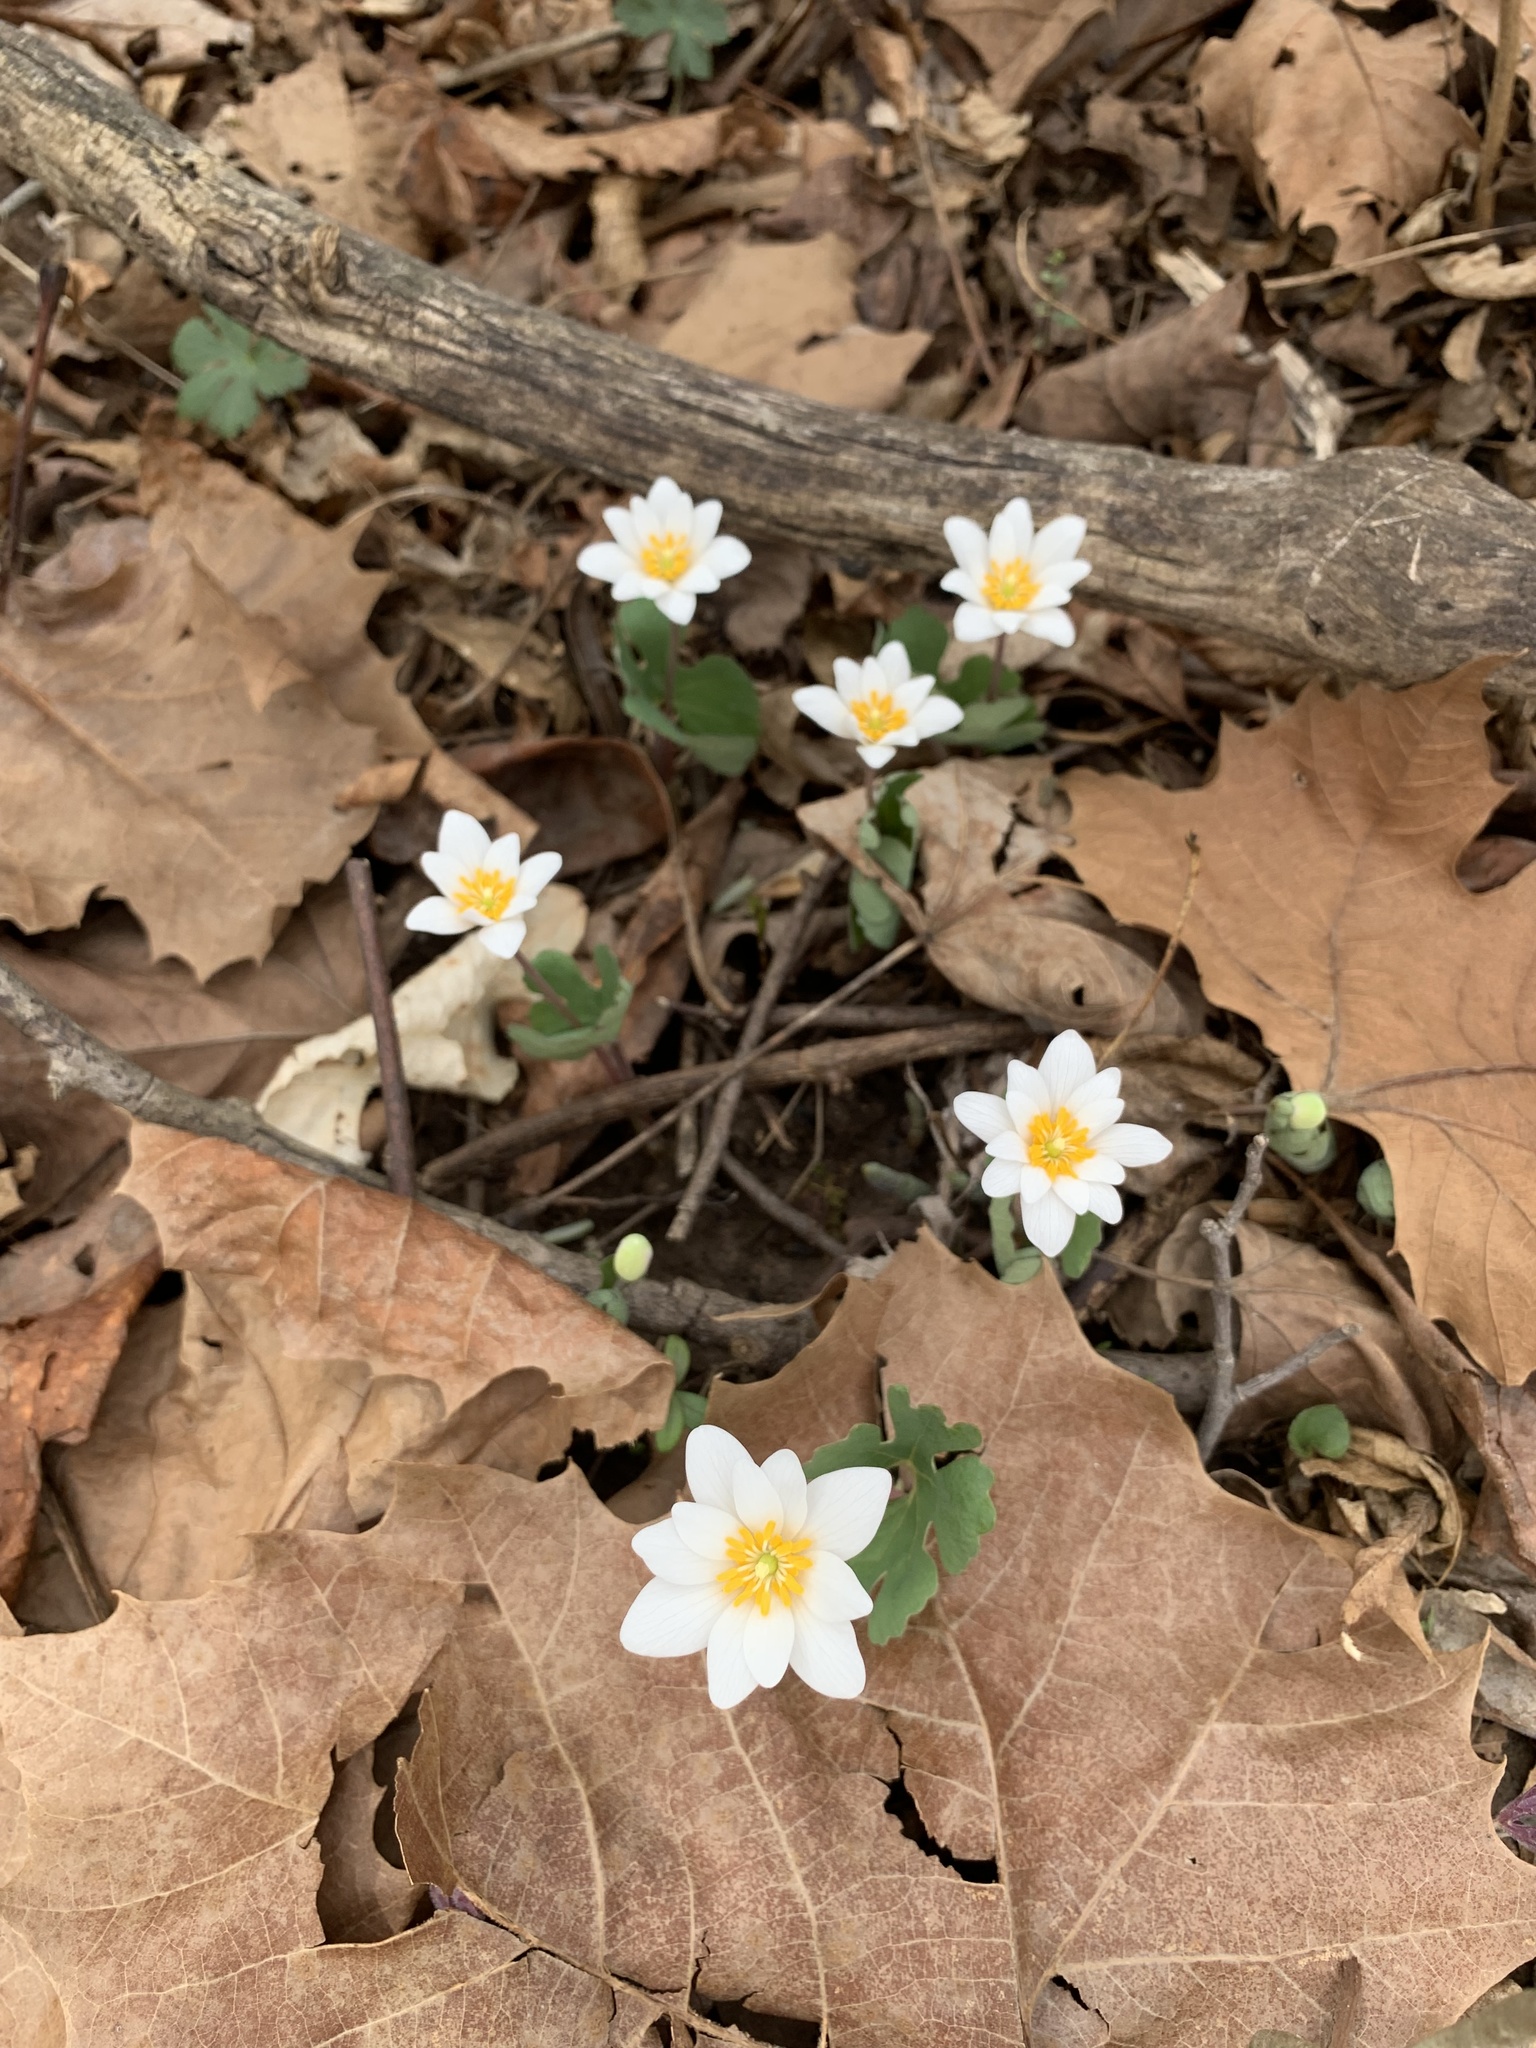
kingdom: Plantae
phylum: Tracheophyta
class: Magnoliopsida
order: Ranunculales
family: Papaveraceae
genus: Sanguinaria
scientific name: Sanguinaria canadensis
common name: Bloodroot
